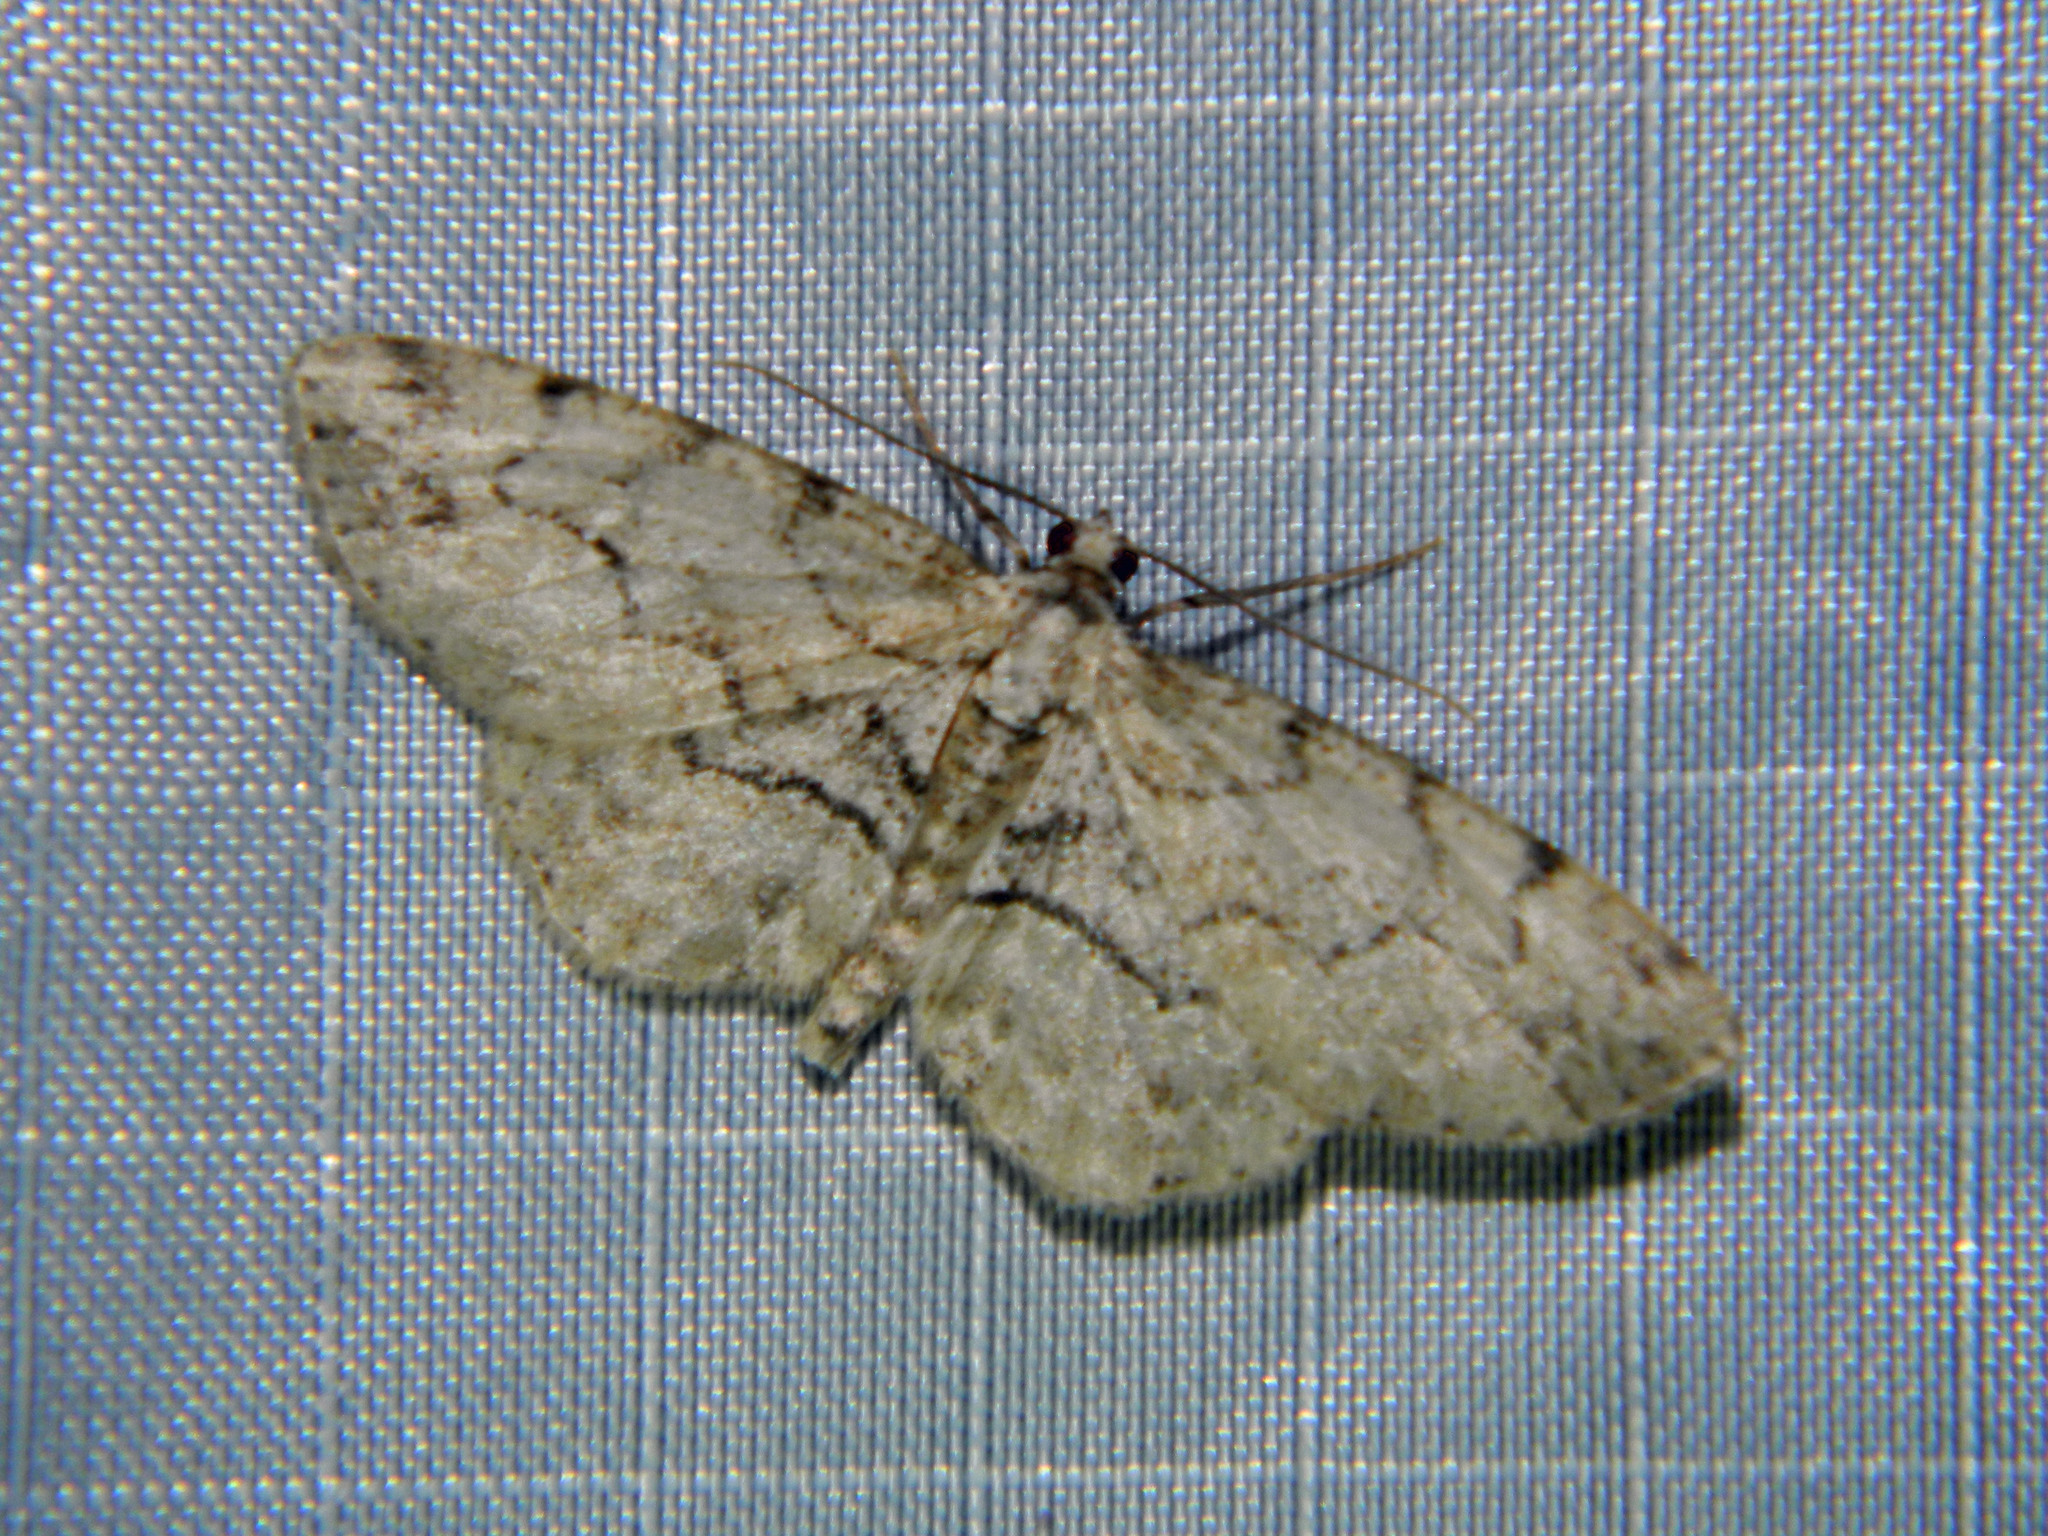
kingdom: Animalia
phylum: Arthropoda
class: Insecta
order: Lepidoptera
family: Geometridae
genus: Iridopsis
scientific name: Iridopsis ephyraria
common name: Pale-winged gray
